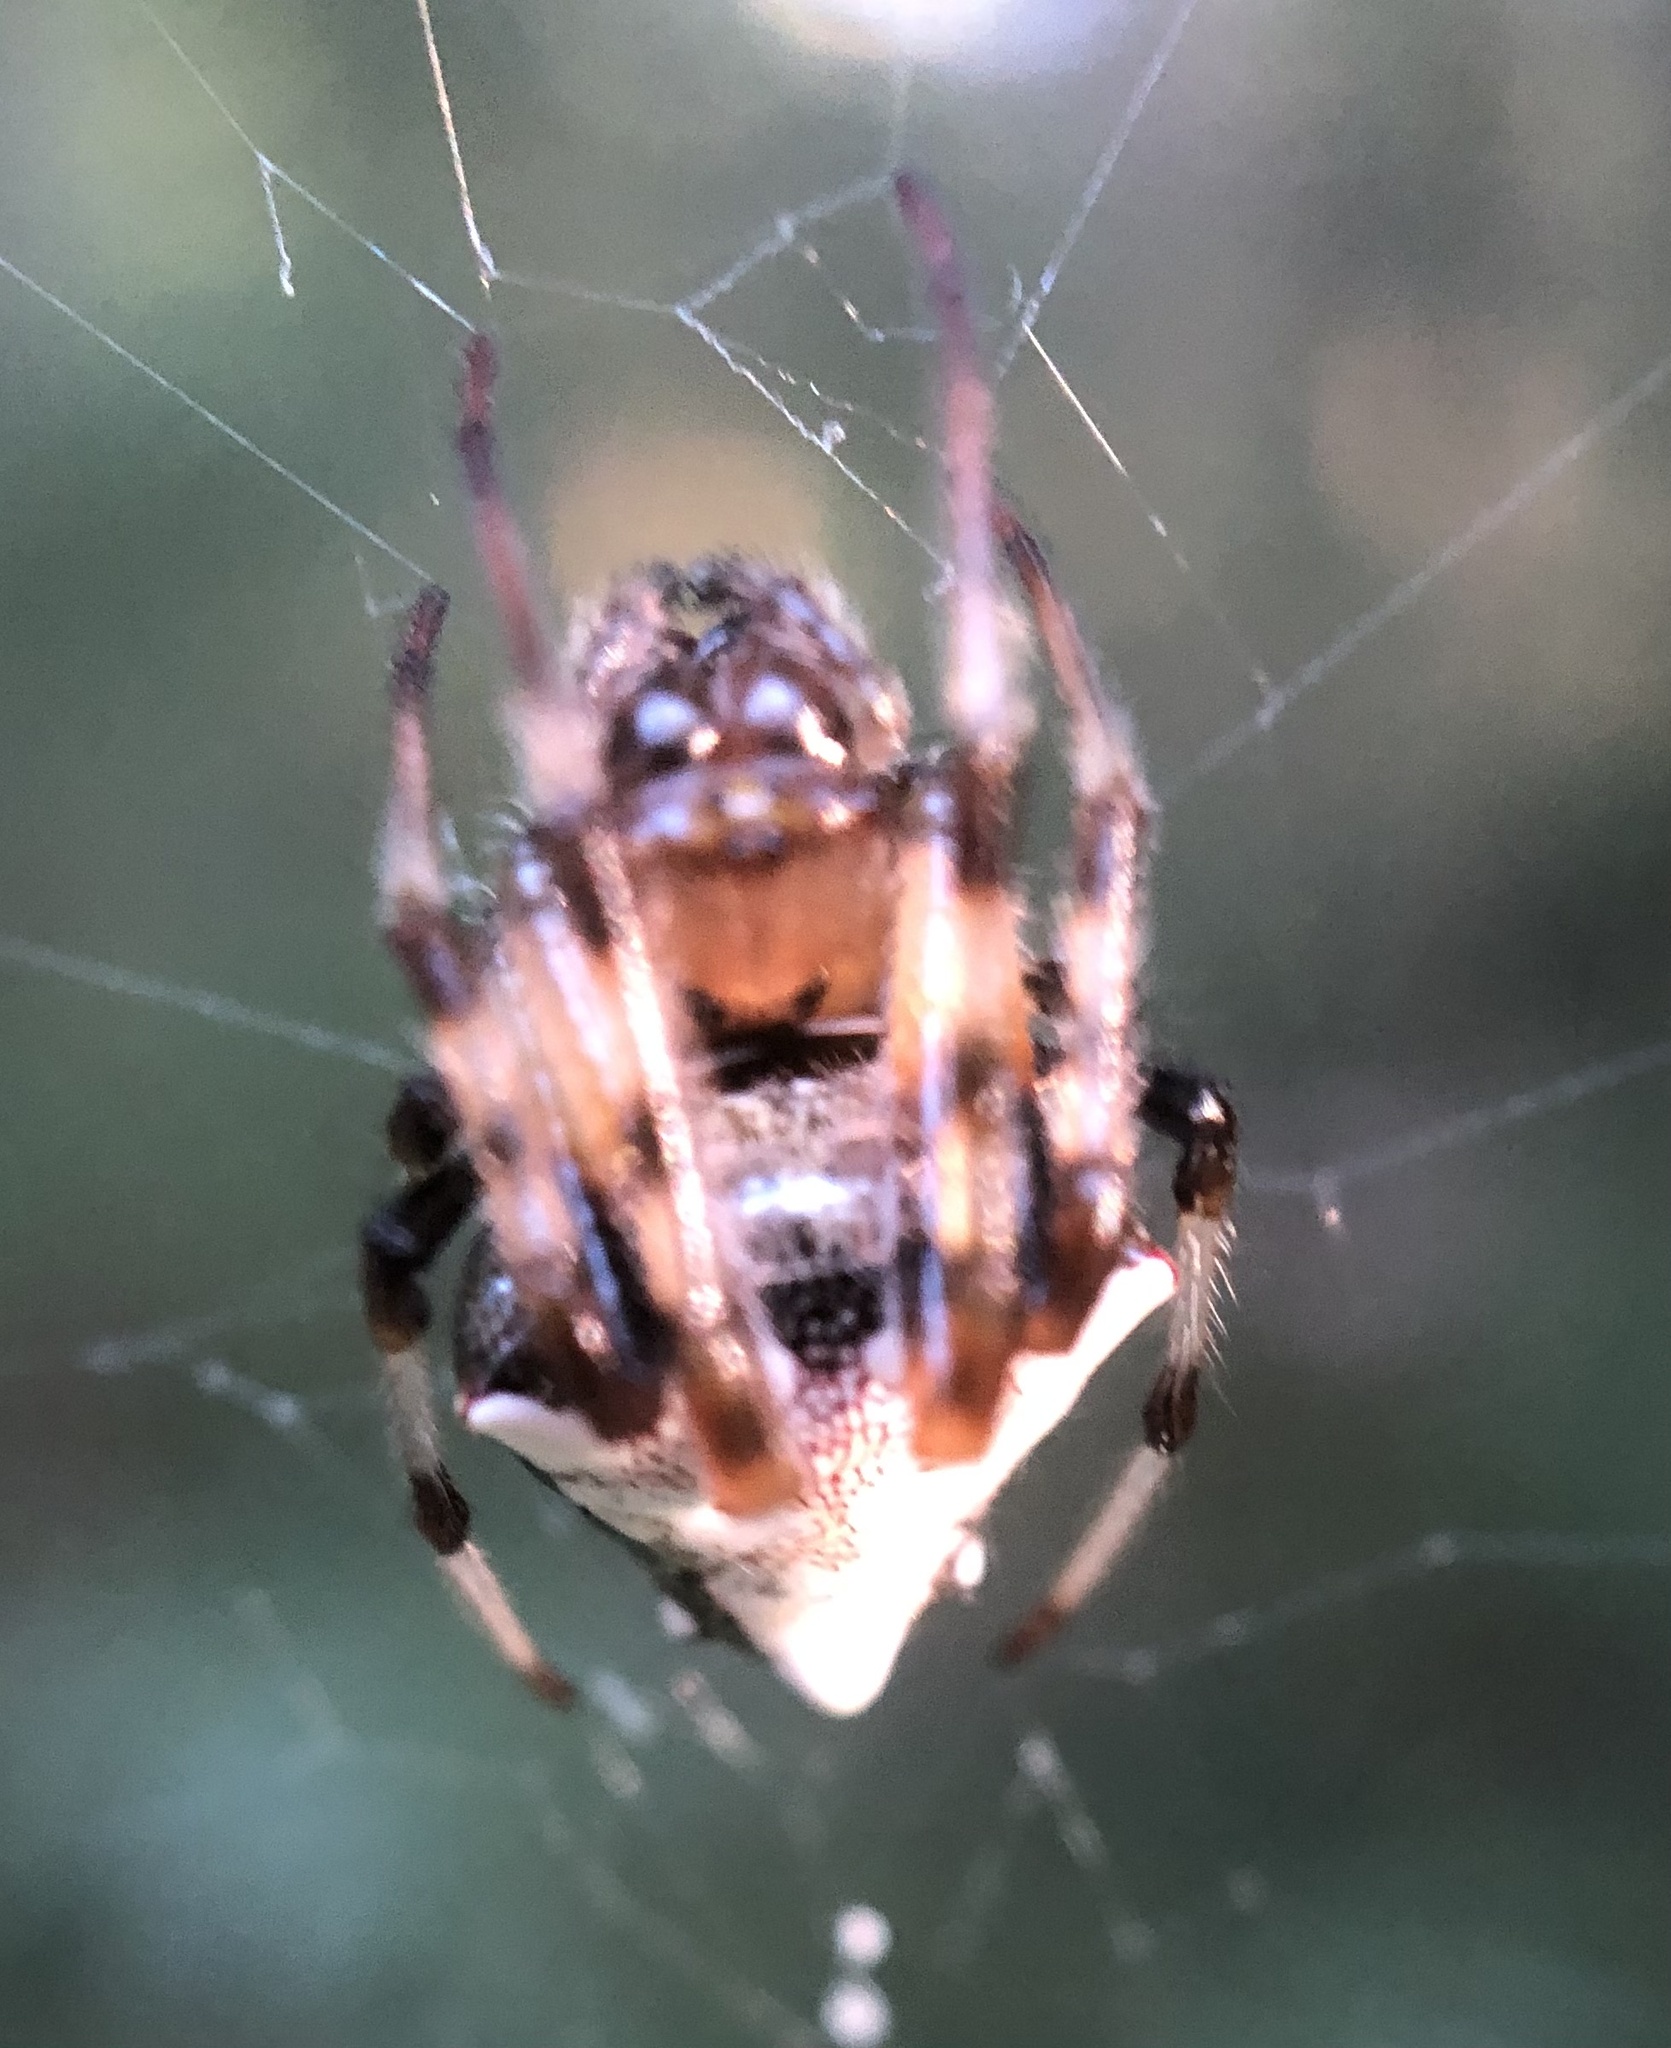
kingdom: Animalia
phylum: Arthropoda
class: Arachnida
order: Araneae
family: Araneidae
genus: Verrucosa
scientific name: Verrucosa arenata
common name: Orb weavers
